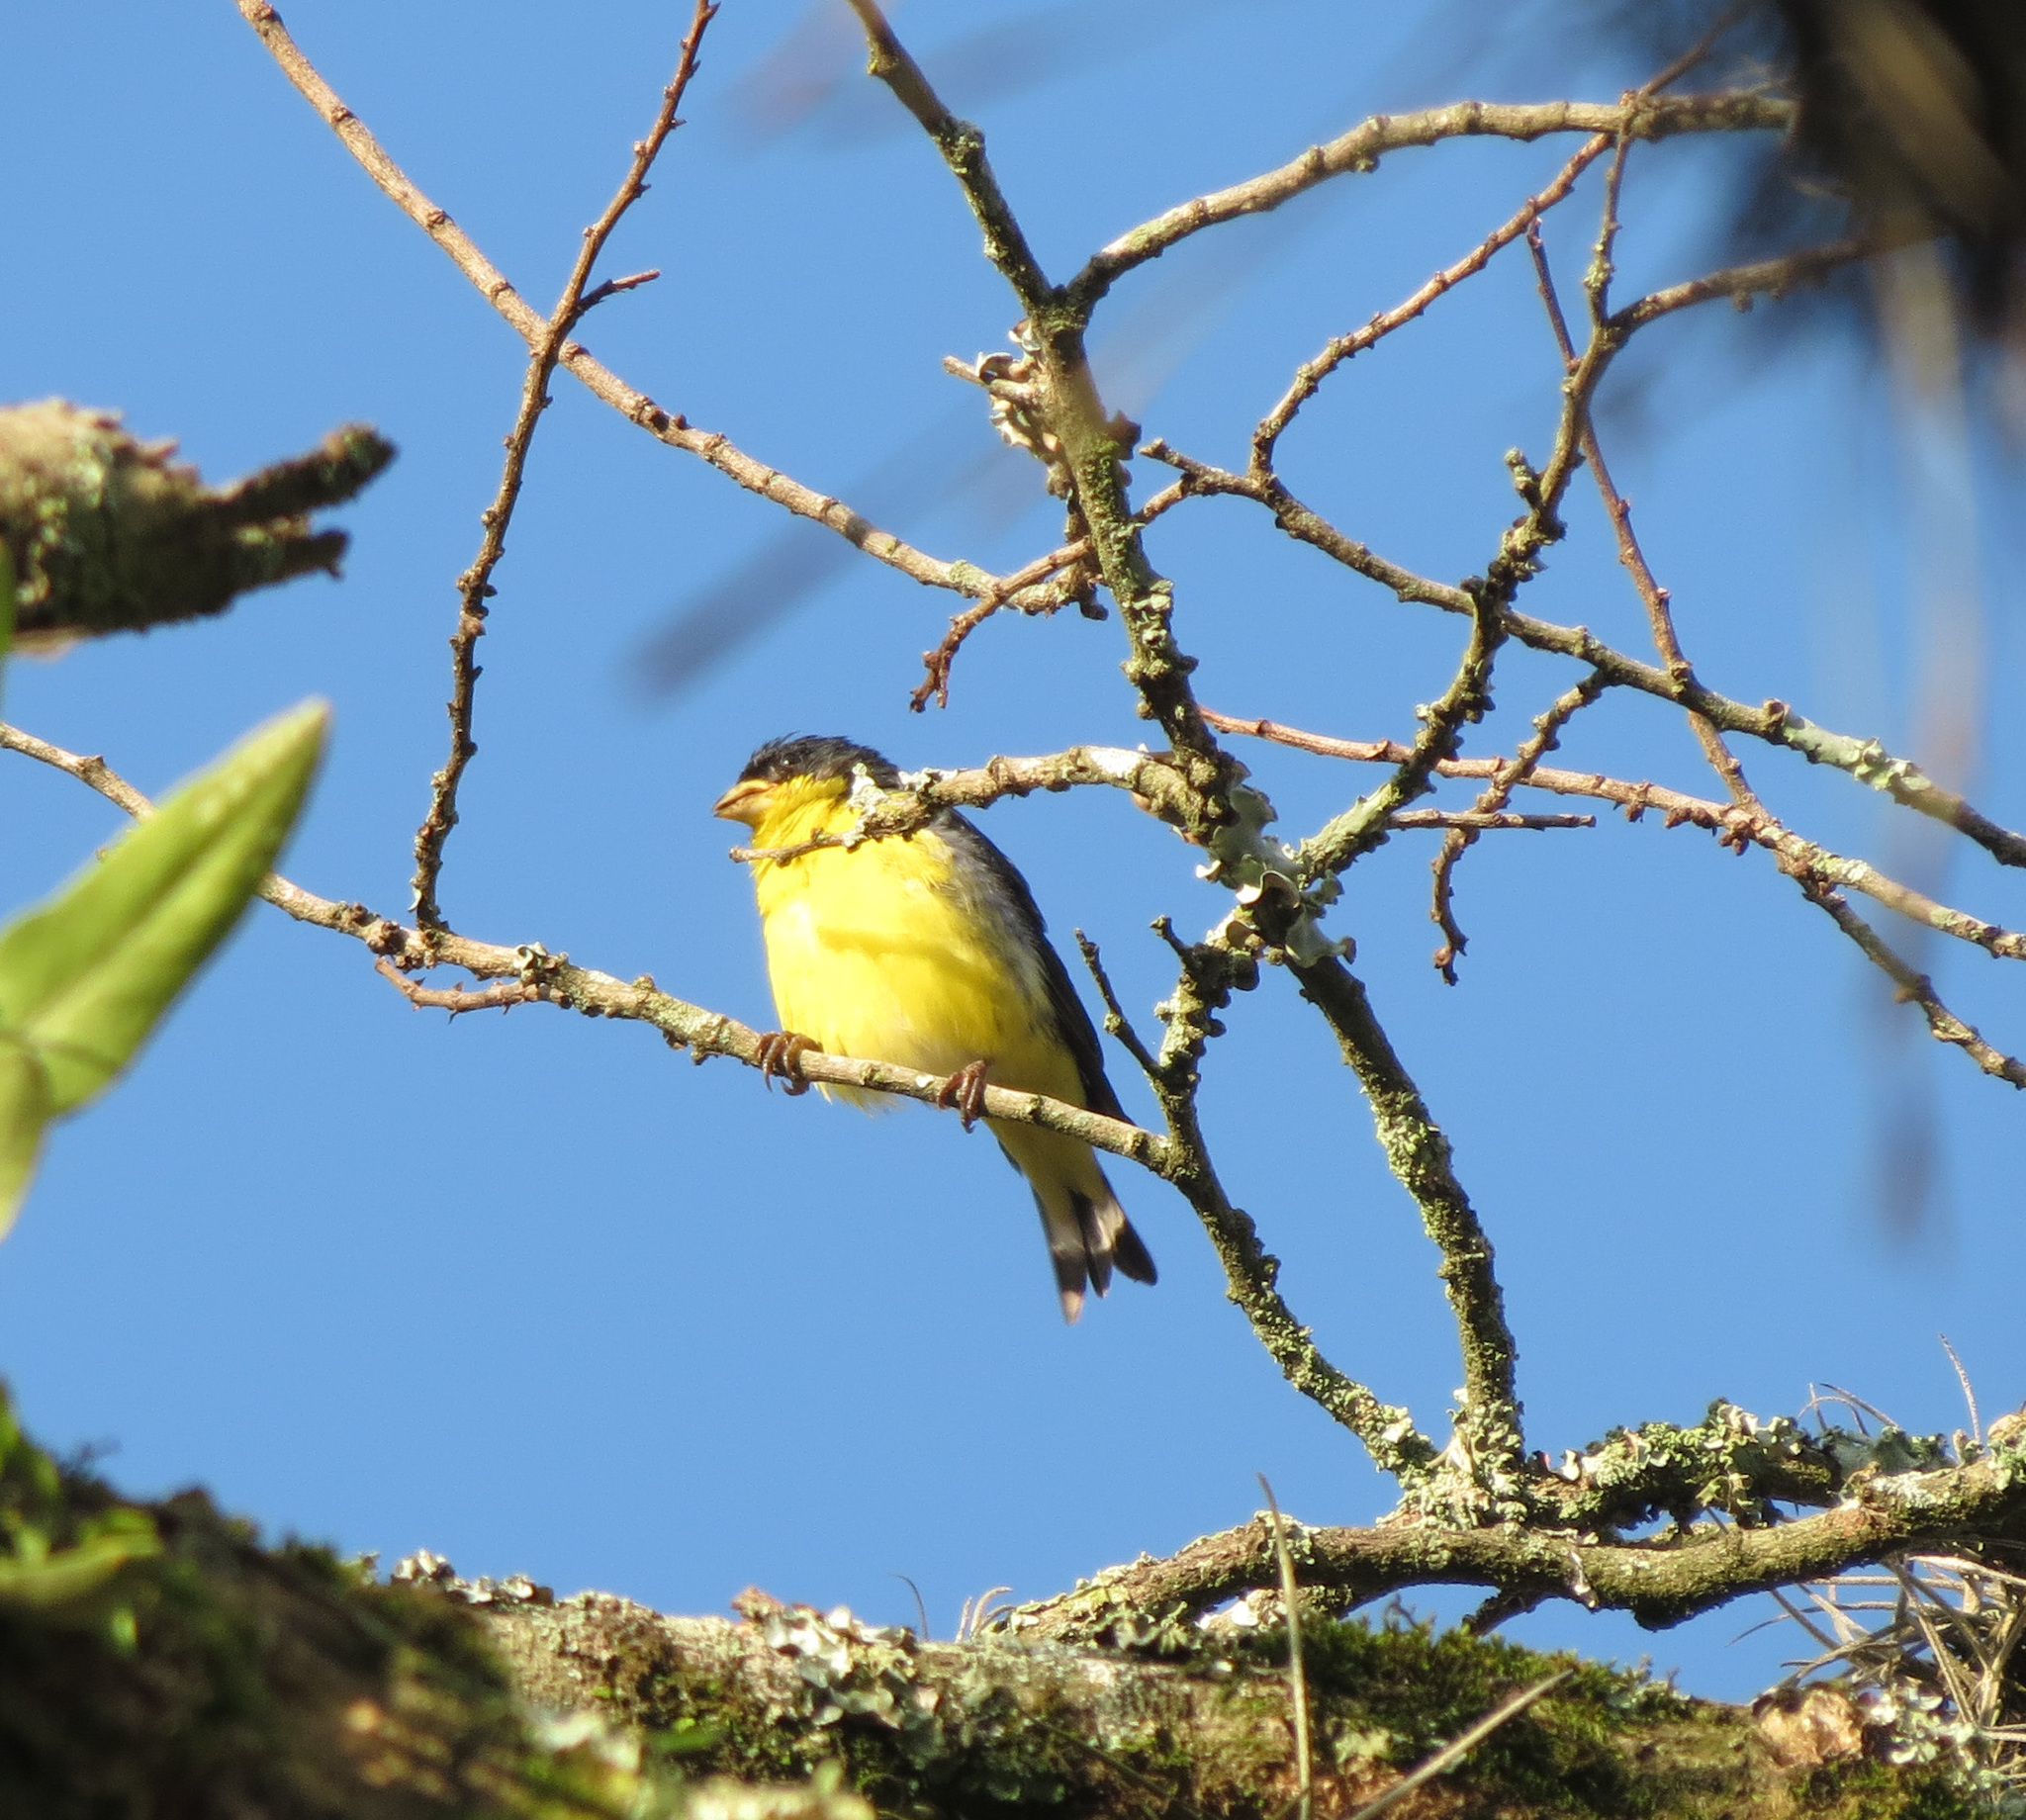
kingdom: Animalia
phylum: Chordata
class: Aves
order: Passeriformes
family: Fringillidae
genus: Spinus
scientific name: Spinus psaltria
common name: Lesser goldfinch
